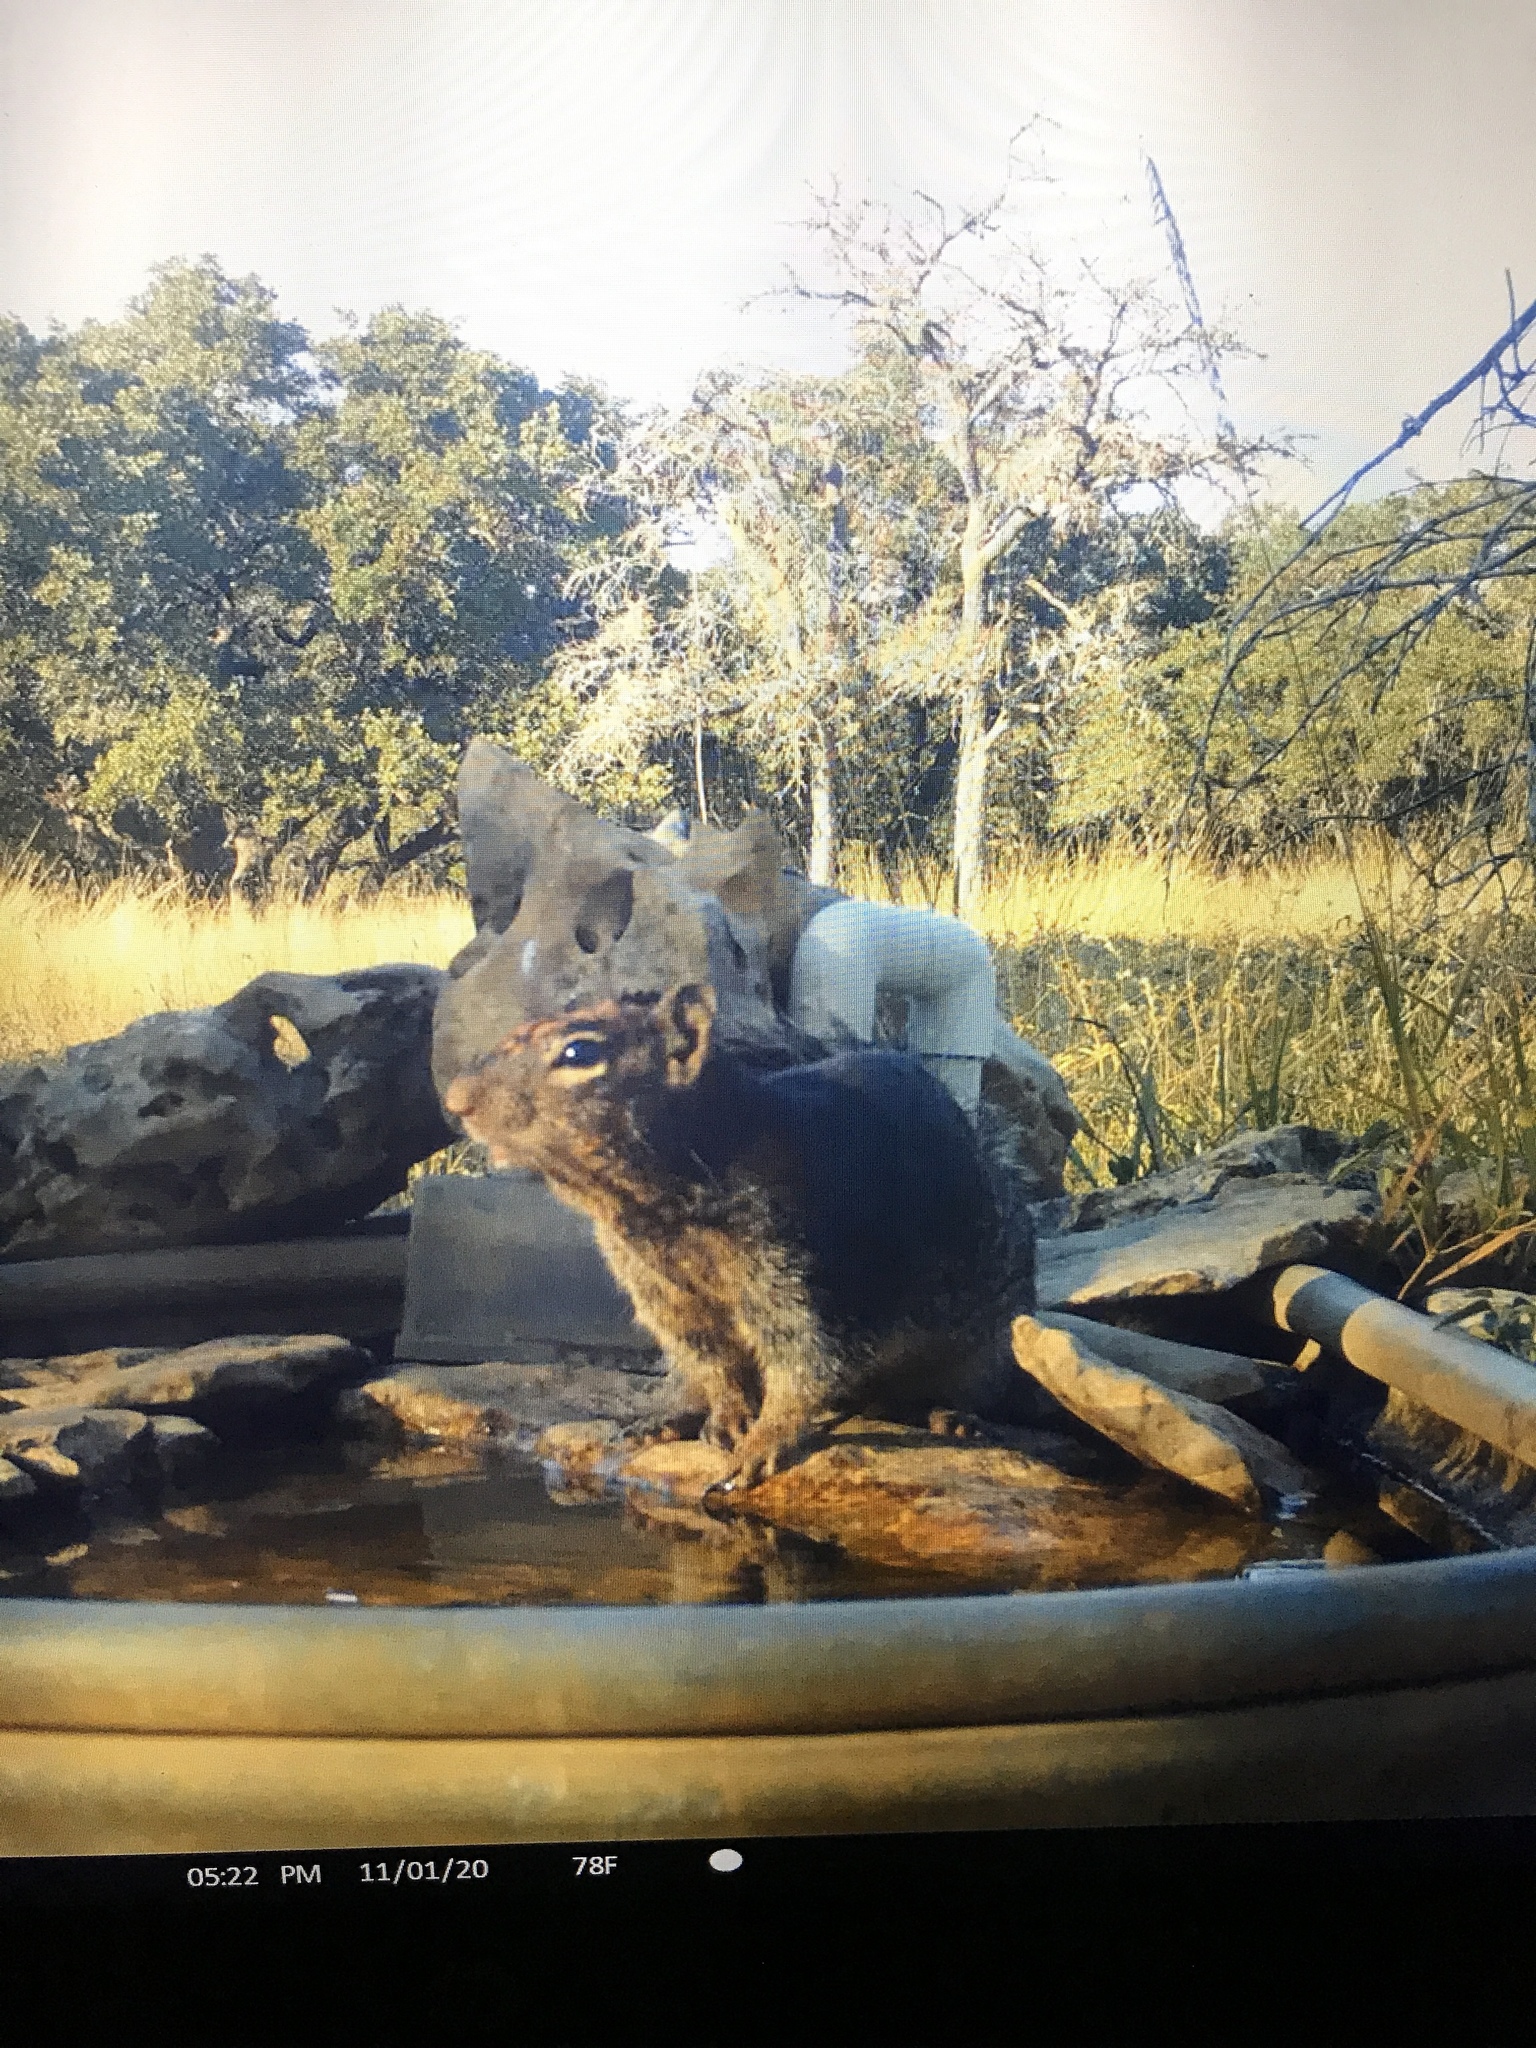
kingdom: Animalia
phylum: Chordata
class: Mammalia
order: Rodentia
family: Sciuridae
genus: Otospermophilus
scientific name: Otospermophilus variegatus
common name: Rock squirrel
